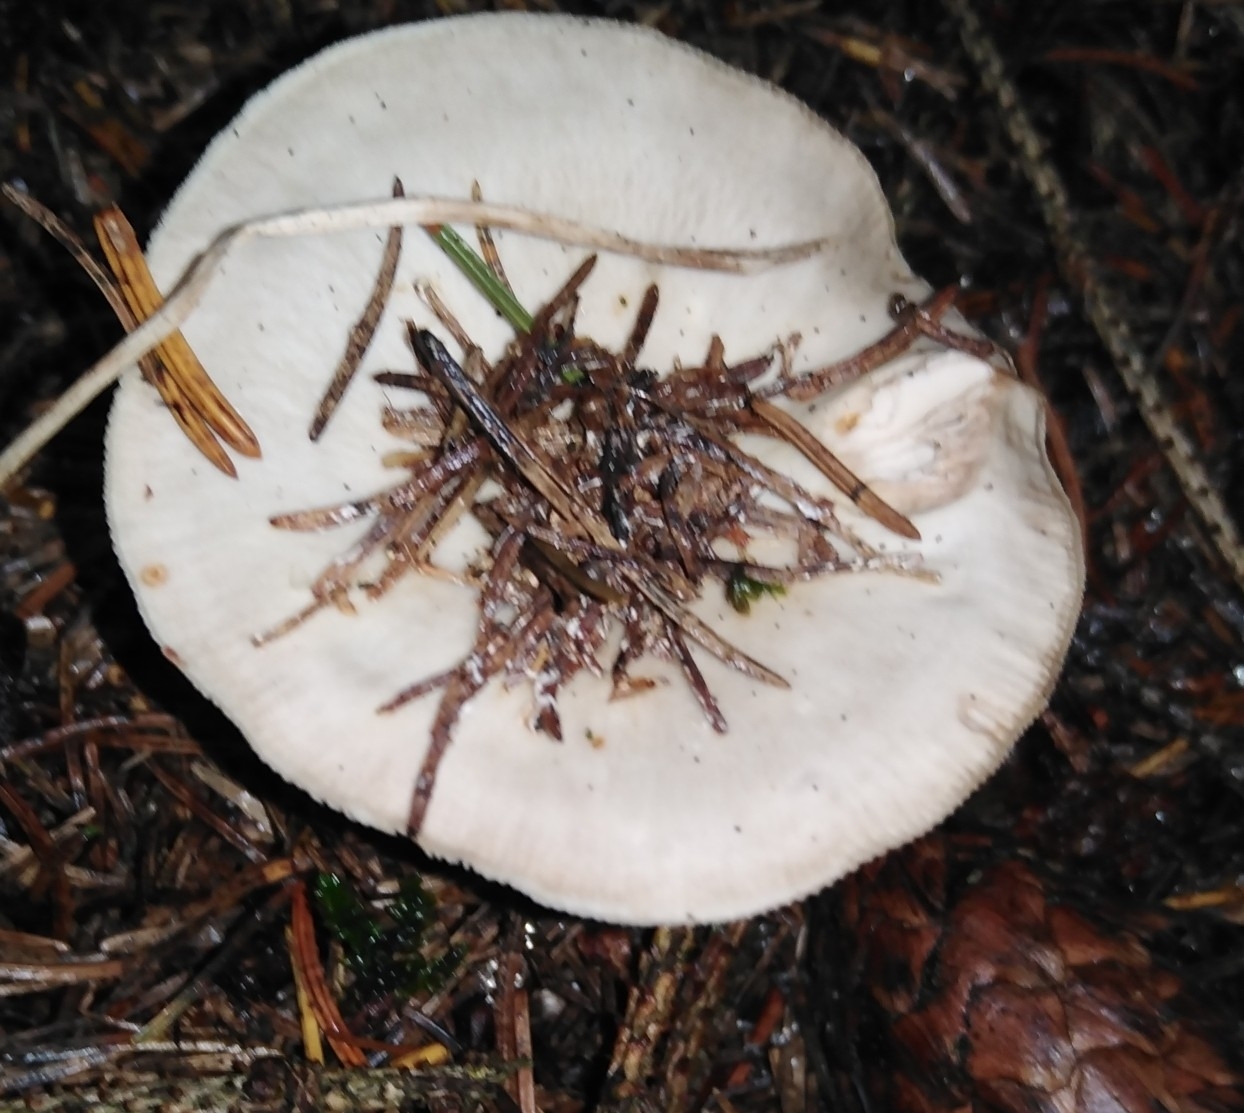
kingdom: Fungi
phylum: Basidiomycota
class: Agaricomycetes
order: Russulales
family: Russulaceae
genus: Lactifluus
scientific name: Lactifluus vellereus
